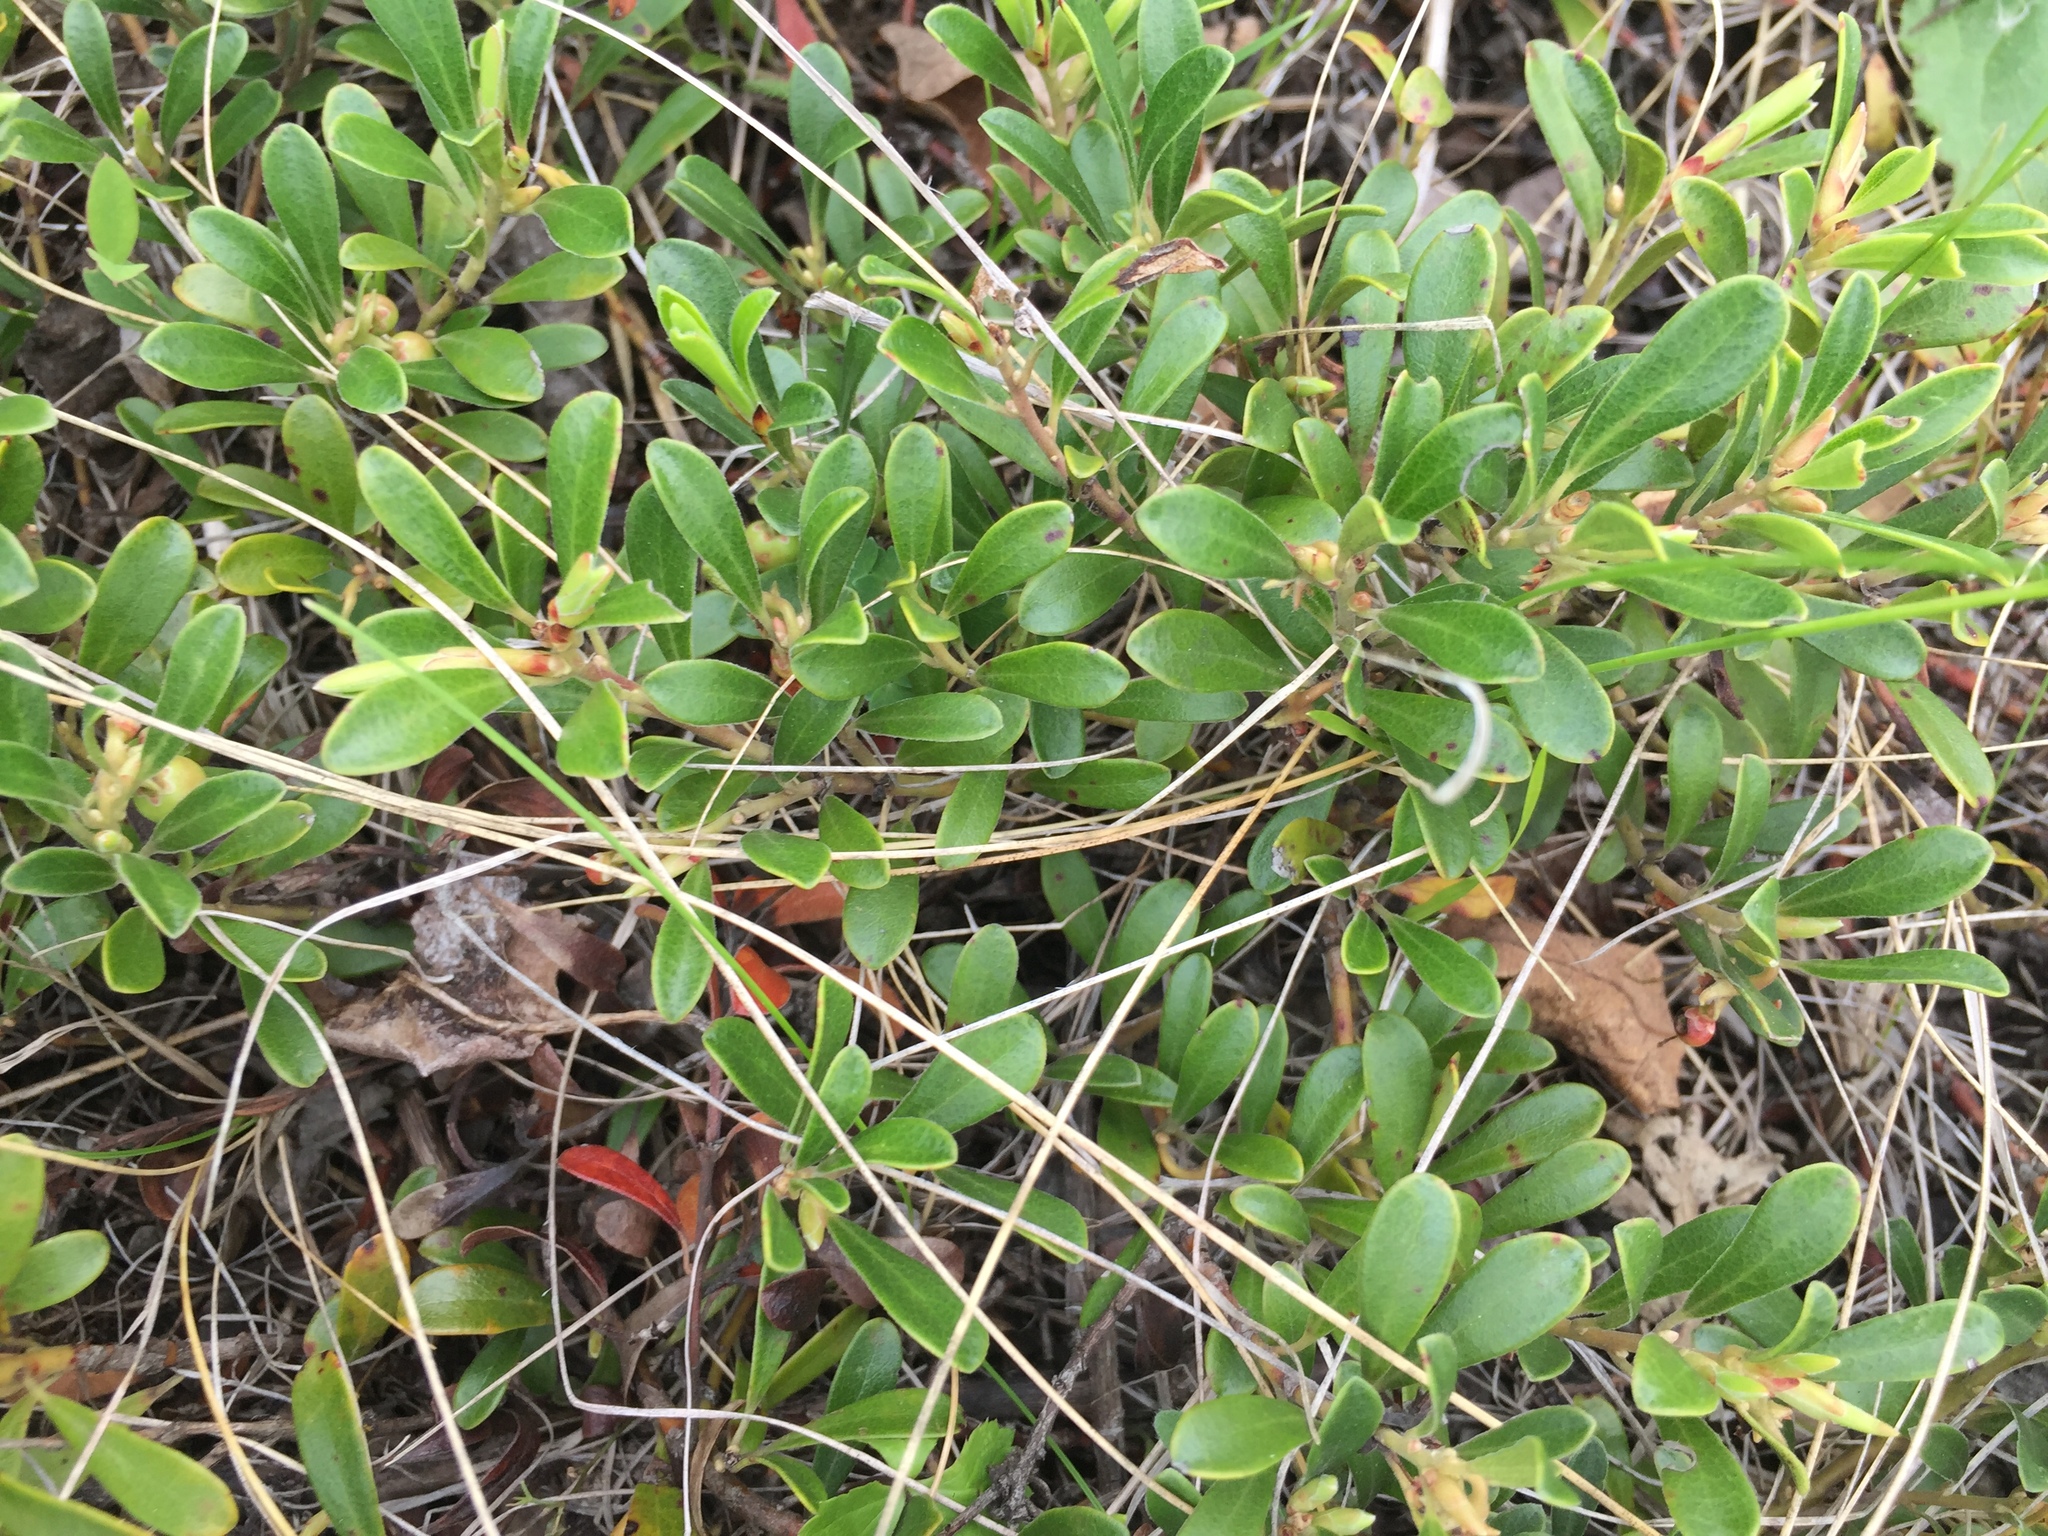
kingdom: Plantae
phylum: Tracheophyta
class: Magnoliopsida
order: Ericales
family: Ericaceae
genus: Arctostaphylos
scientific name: Arctostaphylos uva-ursi
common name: Bearberry
